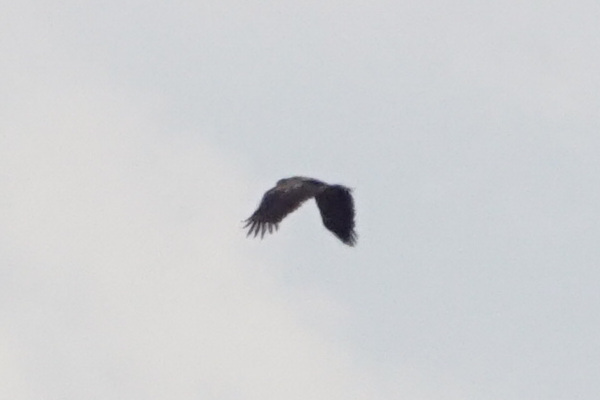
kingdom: Animalia
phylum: Chordata
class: Aves
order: Accipitriformes
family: Accipitridae
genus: Haliaeetus
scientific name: Haliaeetus albicilla
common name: White-tailed eagle
